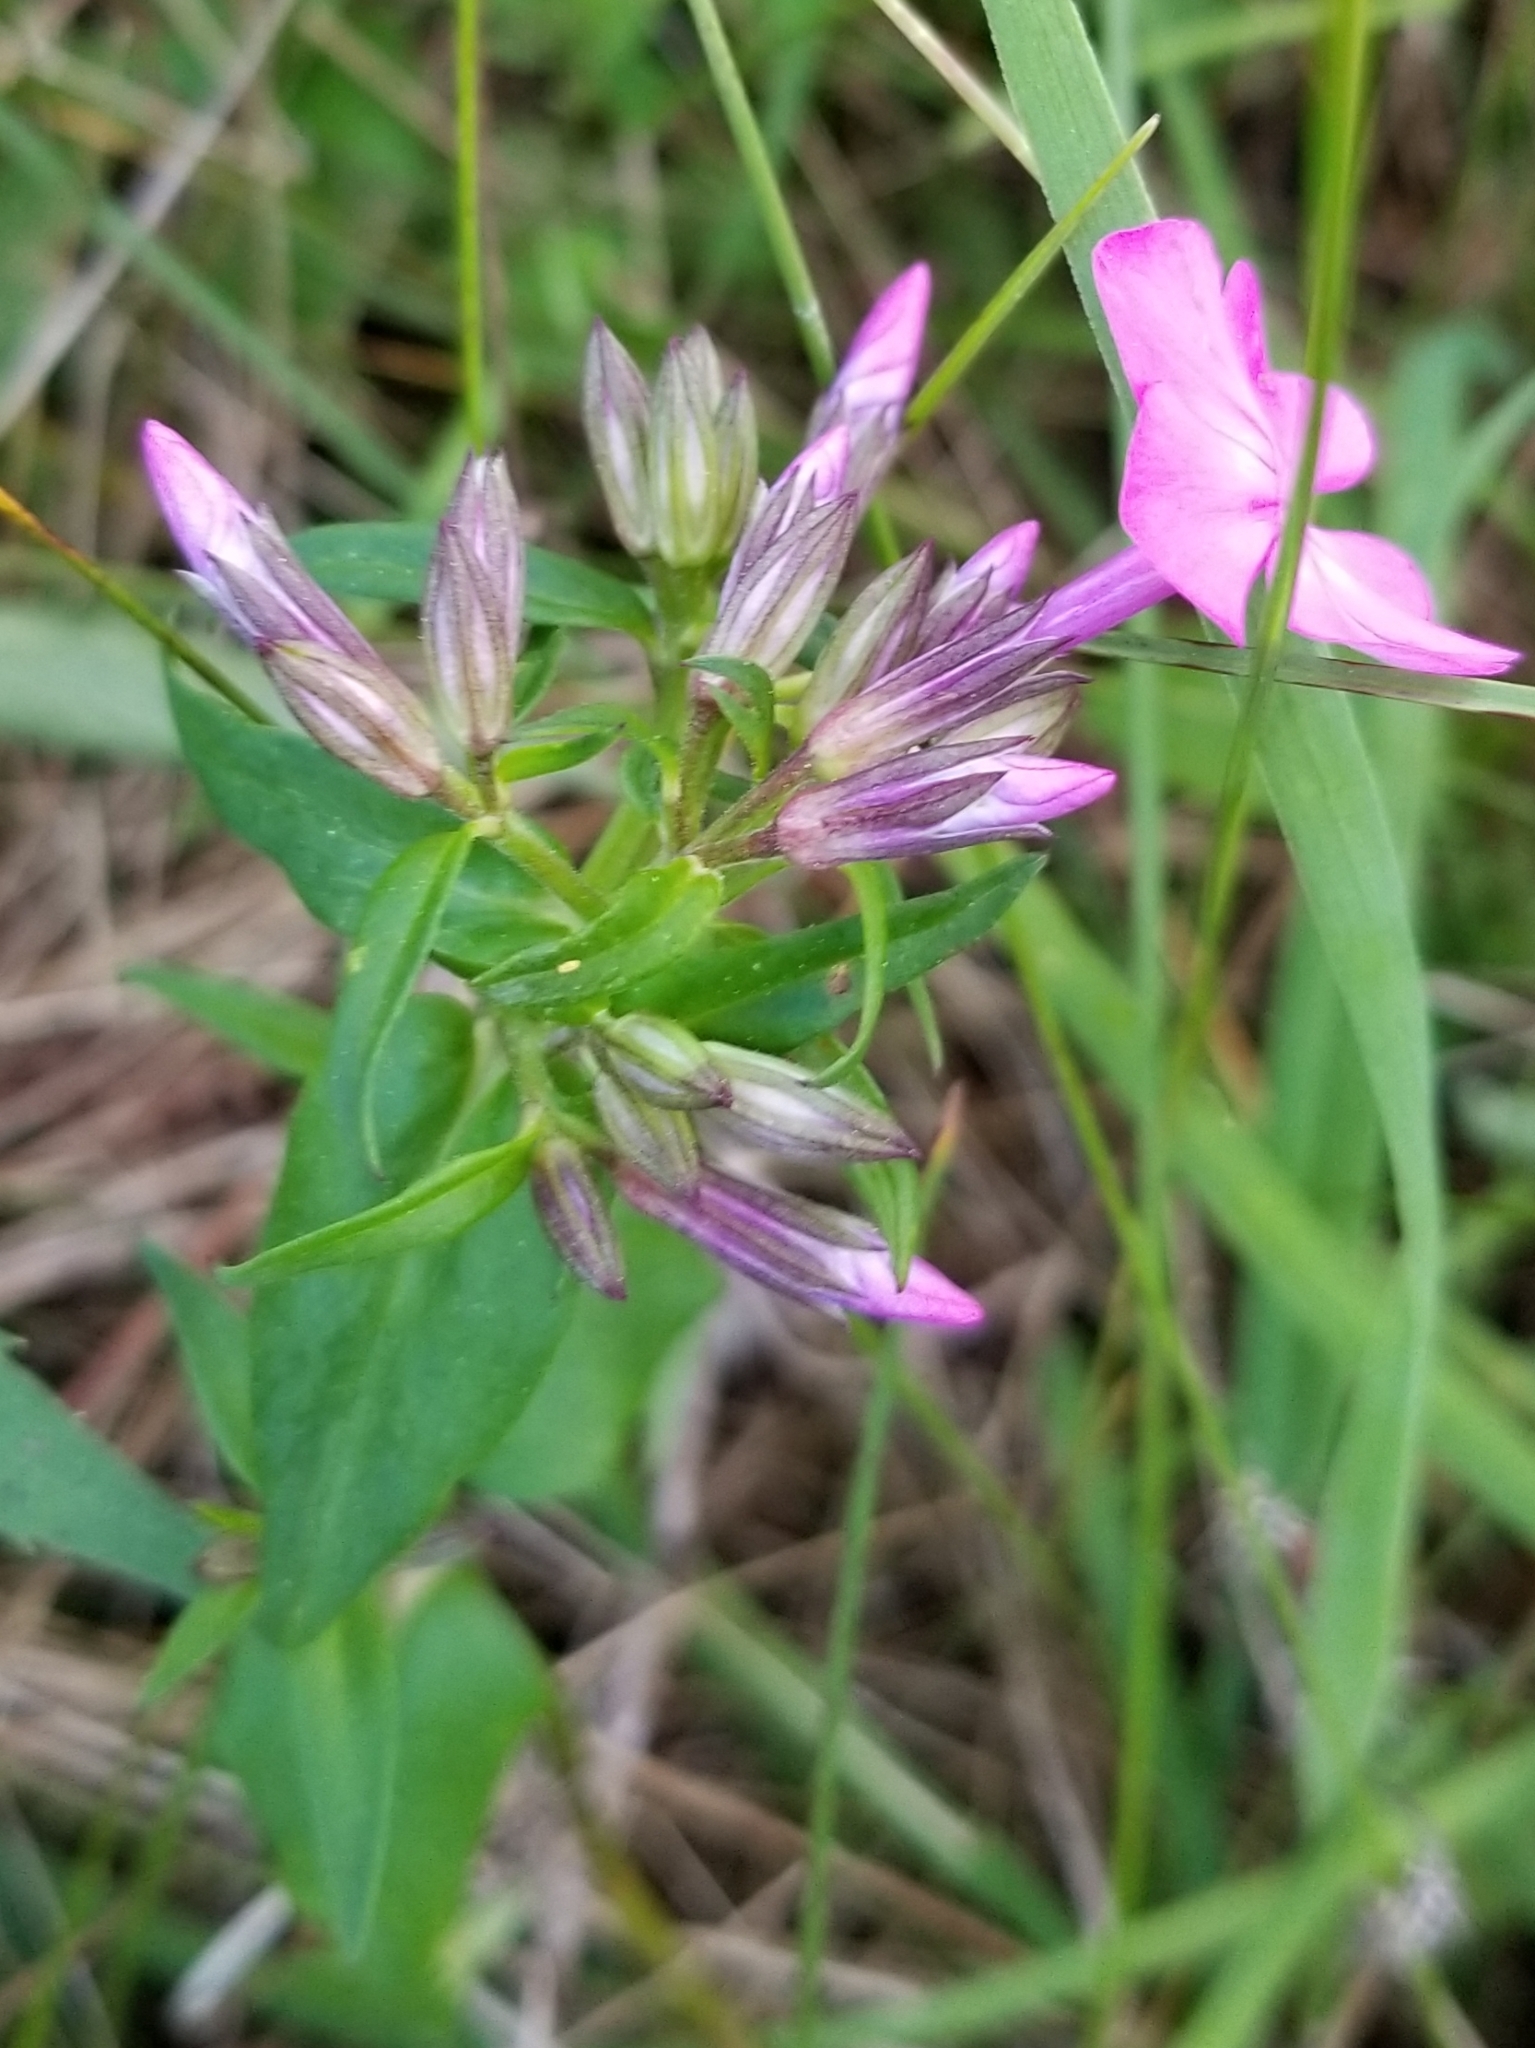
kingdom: Plantae
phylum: Tracheophyta
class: Magnoliopsida
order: Ericales
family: Polemoniaceae
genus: Phlox
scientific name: Phlox ovata
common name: Mountain phlox
